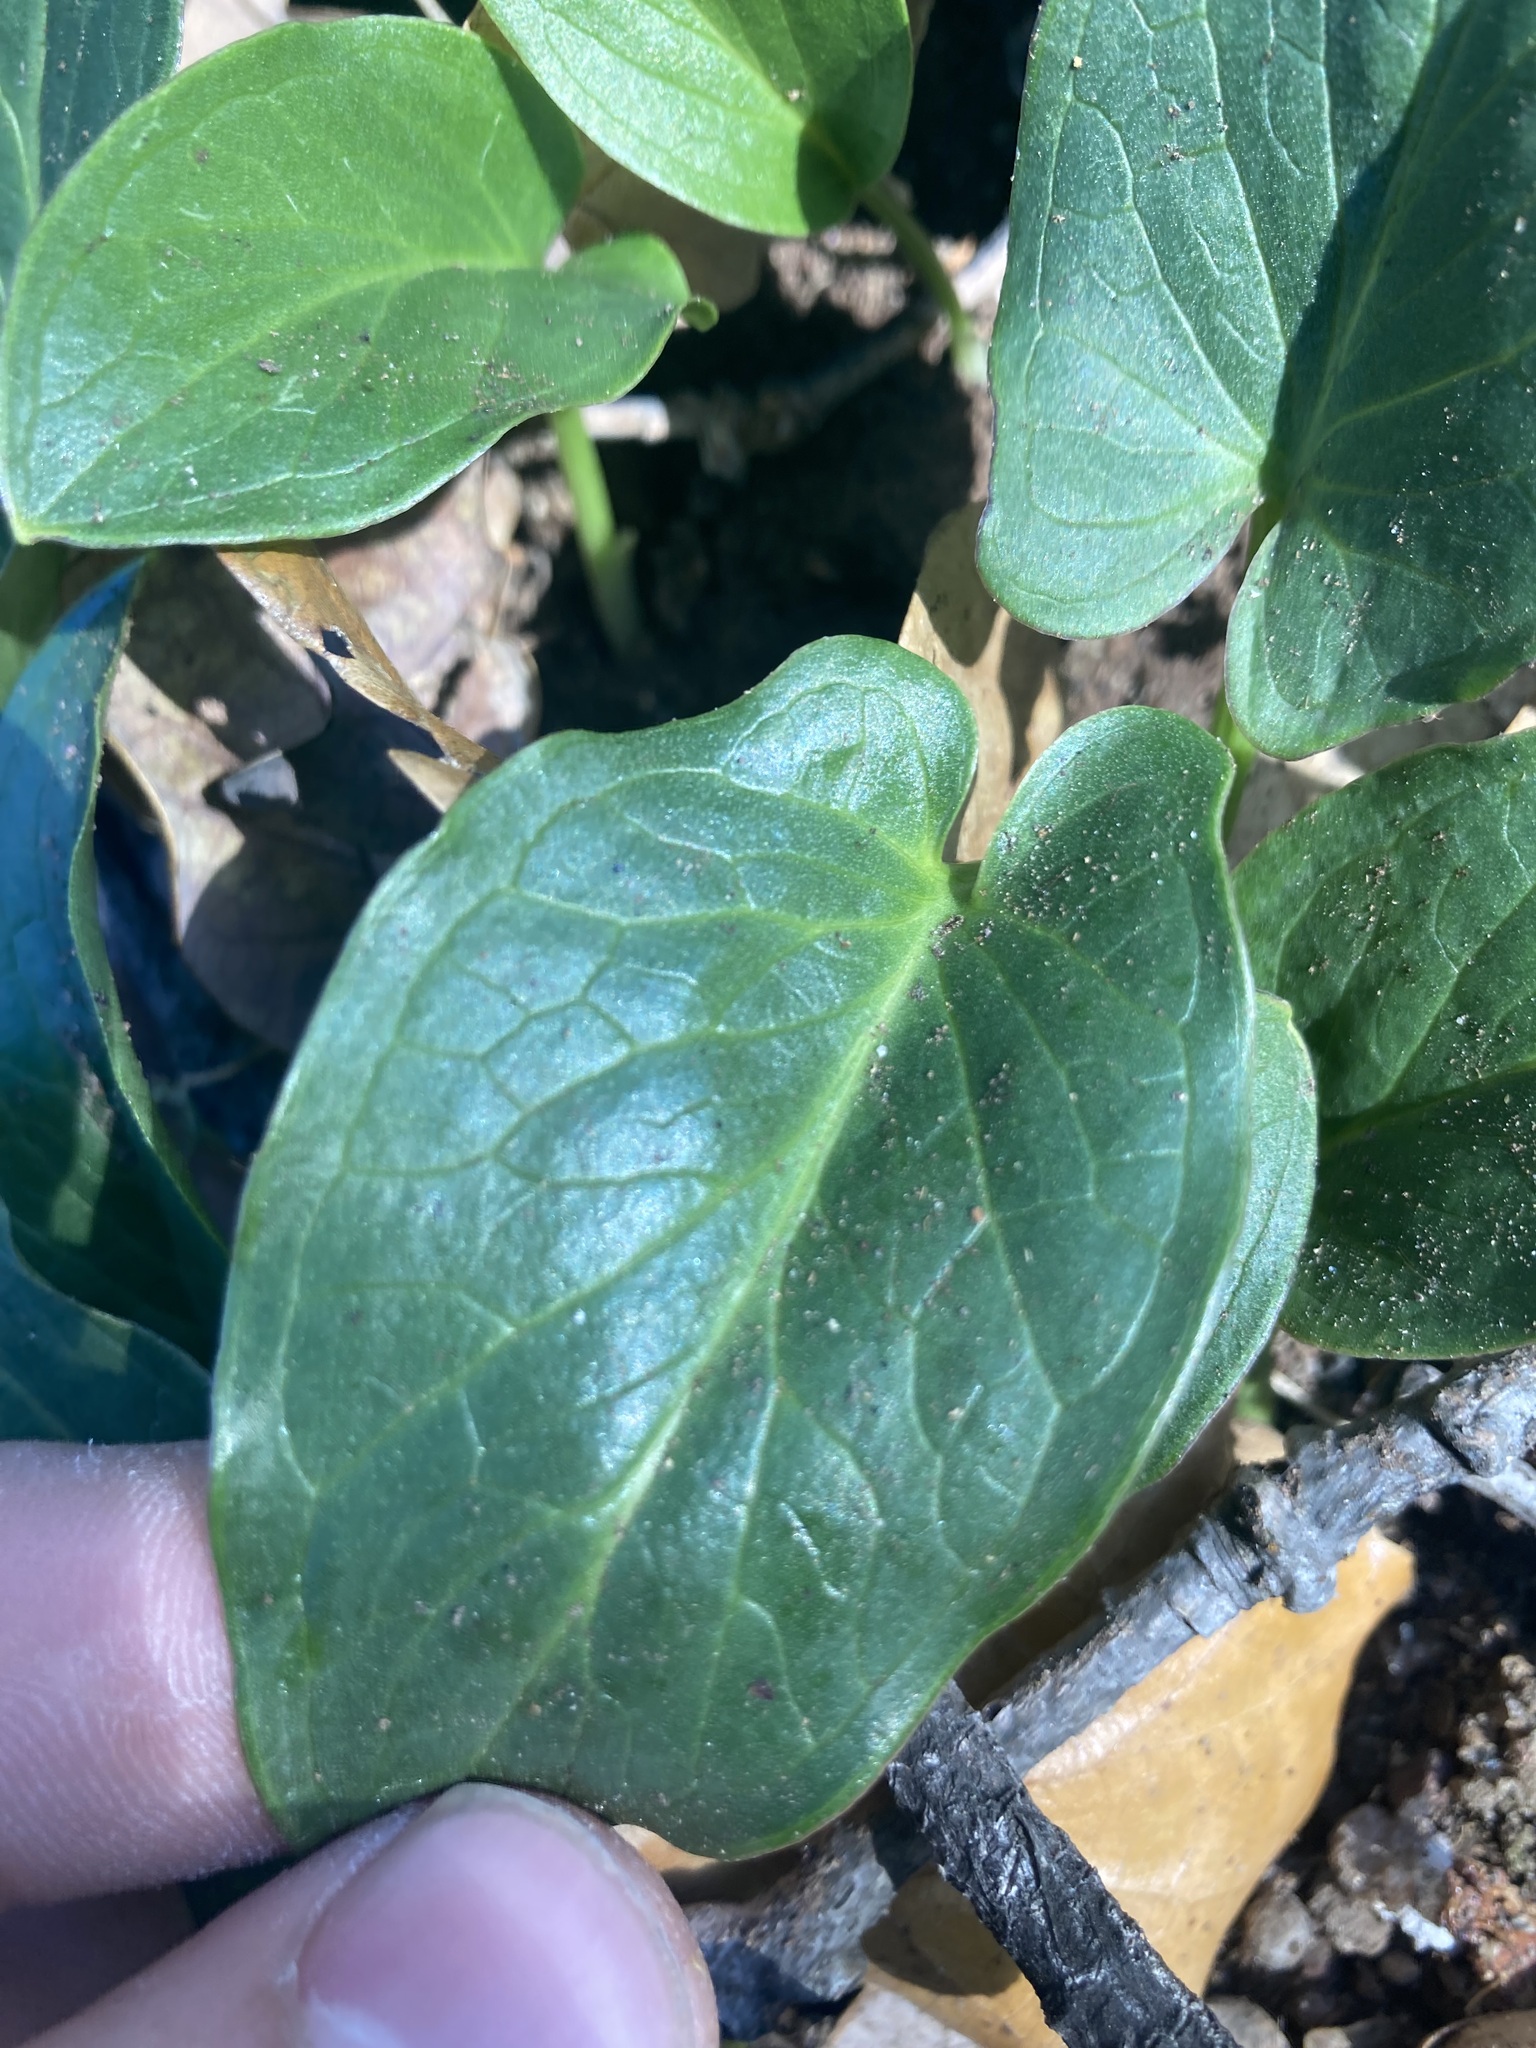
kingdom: Plantae
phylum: Tracheophyta
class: Liliopsida
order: Alismatales
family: Araceae
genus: Arisarum
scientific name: Arisarum vulgare
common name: Common arisarum
